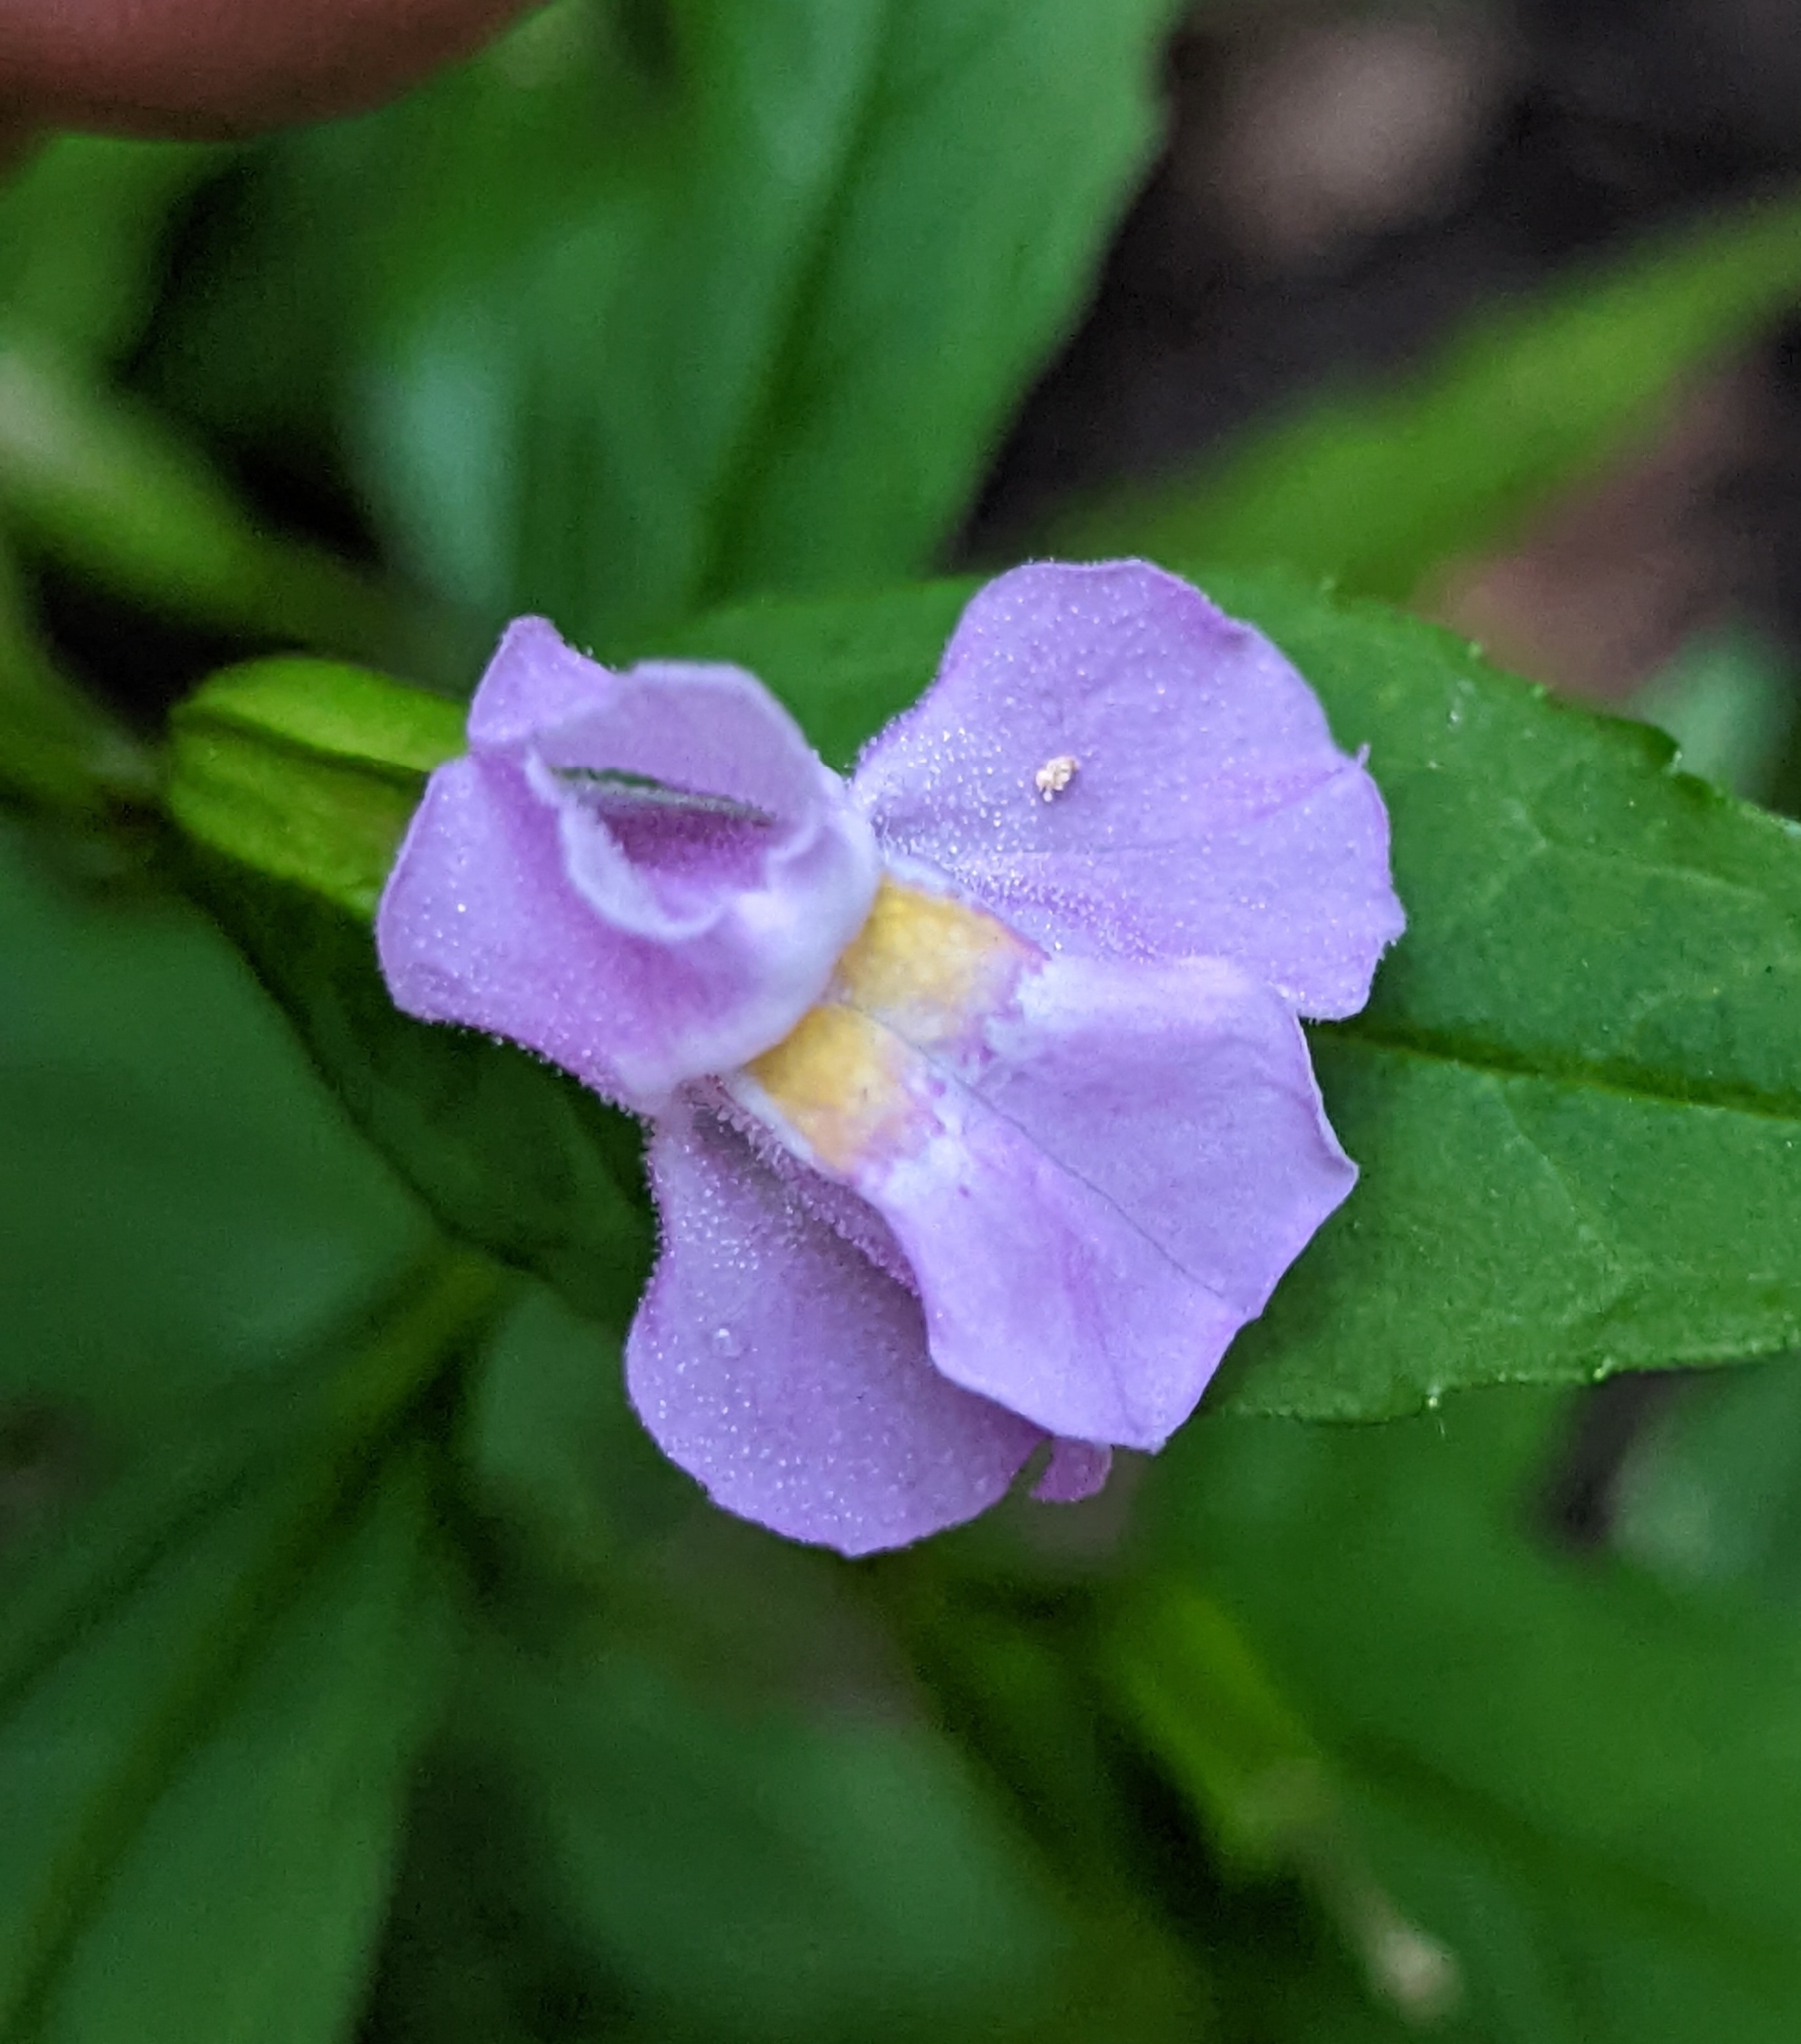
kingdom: Plantae
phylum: Tracheophyta
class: Magnoliopsida
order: Lamiales
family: Phrymaceae
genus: Mimulus
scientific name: Mimulus alatus
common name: Sharp-wing monkey-flower
